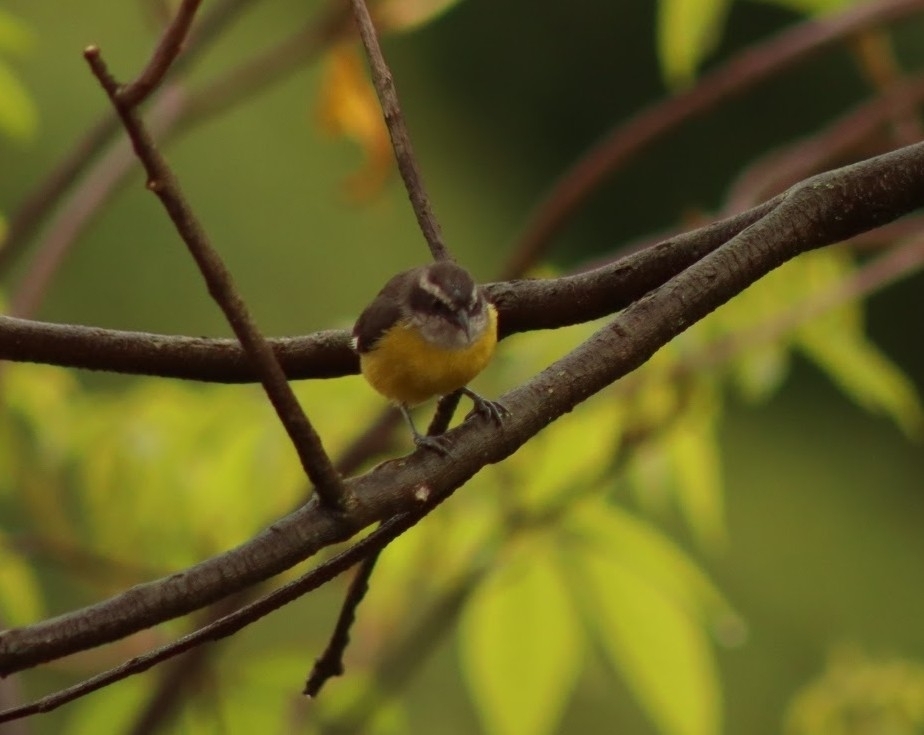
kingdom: Animalia
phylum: Chordata
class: Aves
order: Passeriformes
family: Thraupidae
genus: Coereba
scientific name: Coereba flaveola
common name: Bananaquit
